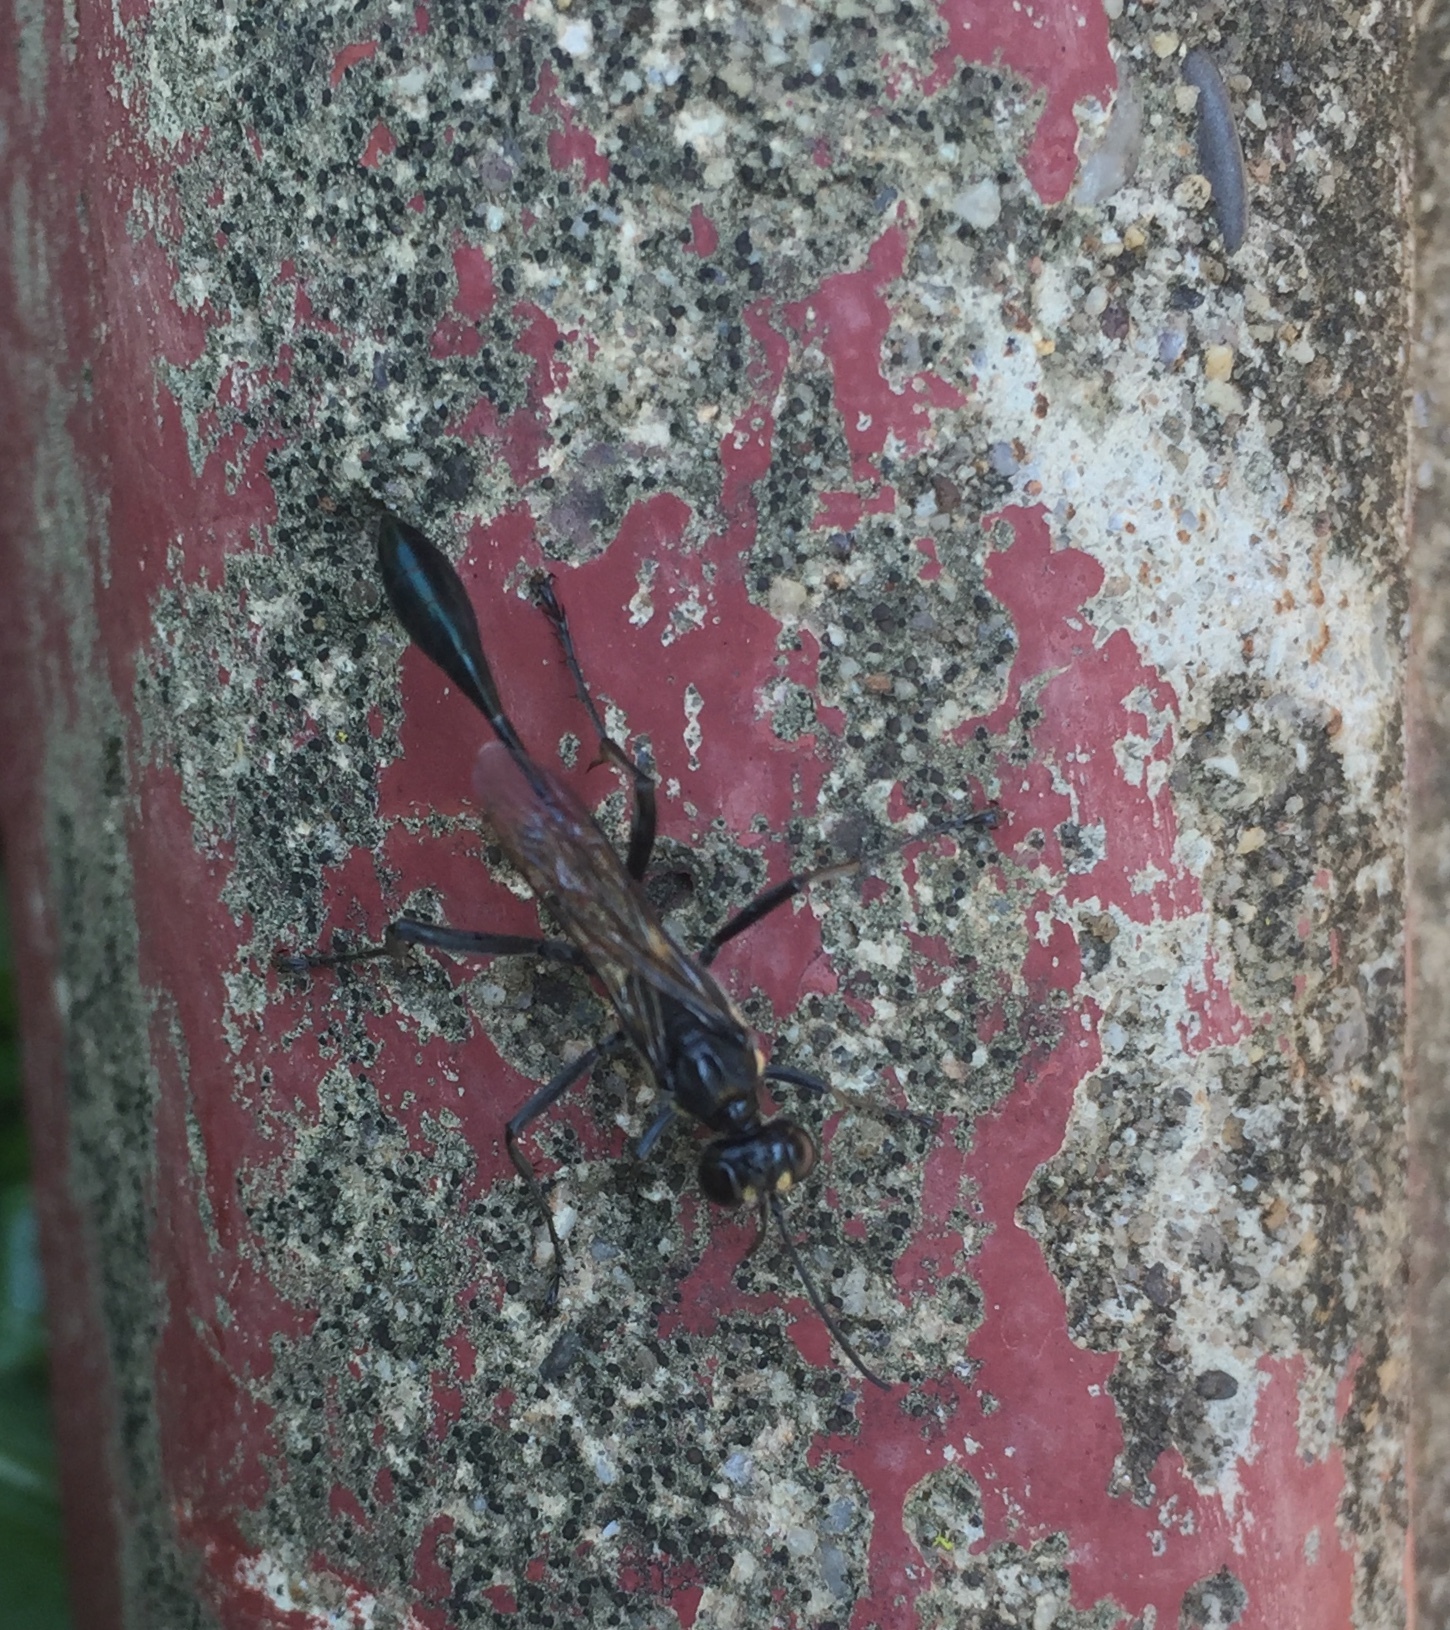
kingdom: Animalia
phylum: Arthropoda
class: Insecta
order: Hymenoptera
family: Sphecidae
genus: Eremnophila
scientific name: Eremnophila aureonotata
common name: Gold-marked thread-waisted wasp
